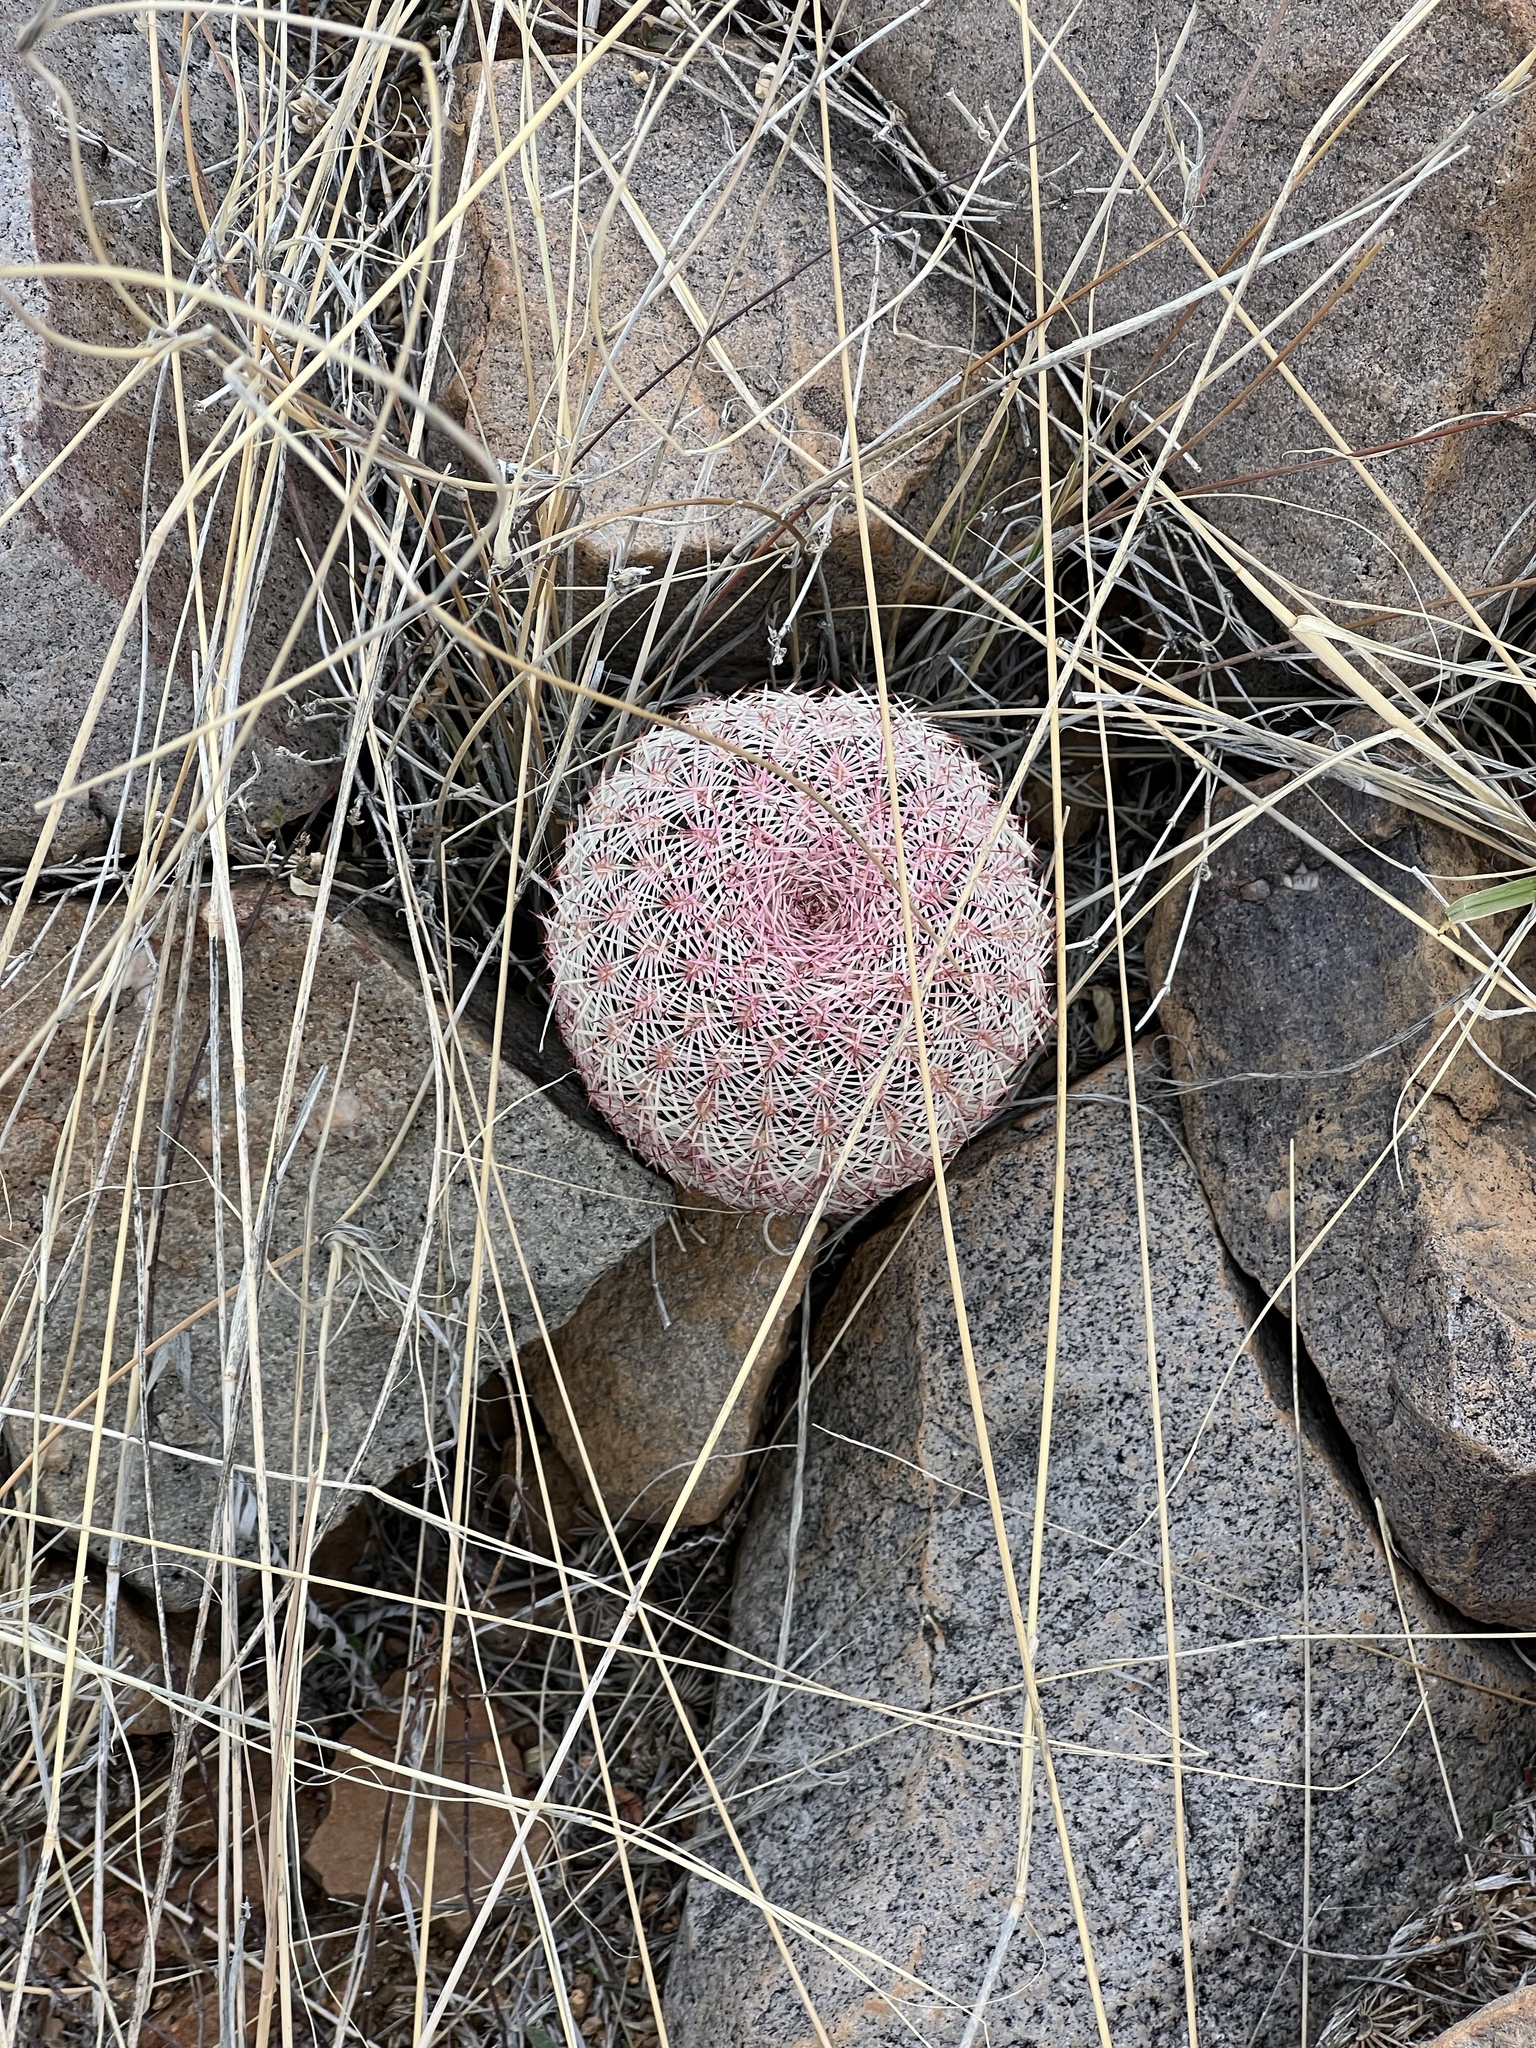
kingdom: Plantae
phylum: Tracheophyta
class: Magnoliopsida
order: Caryophyllales
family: Cactaceae
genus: Echinocereus
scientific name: Echinocereus rigidissimus
